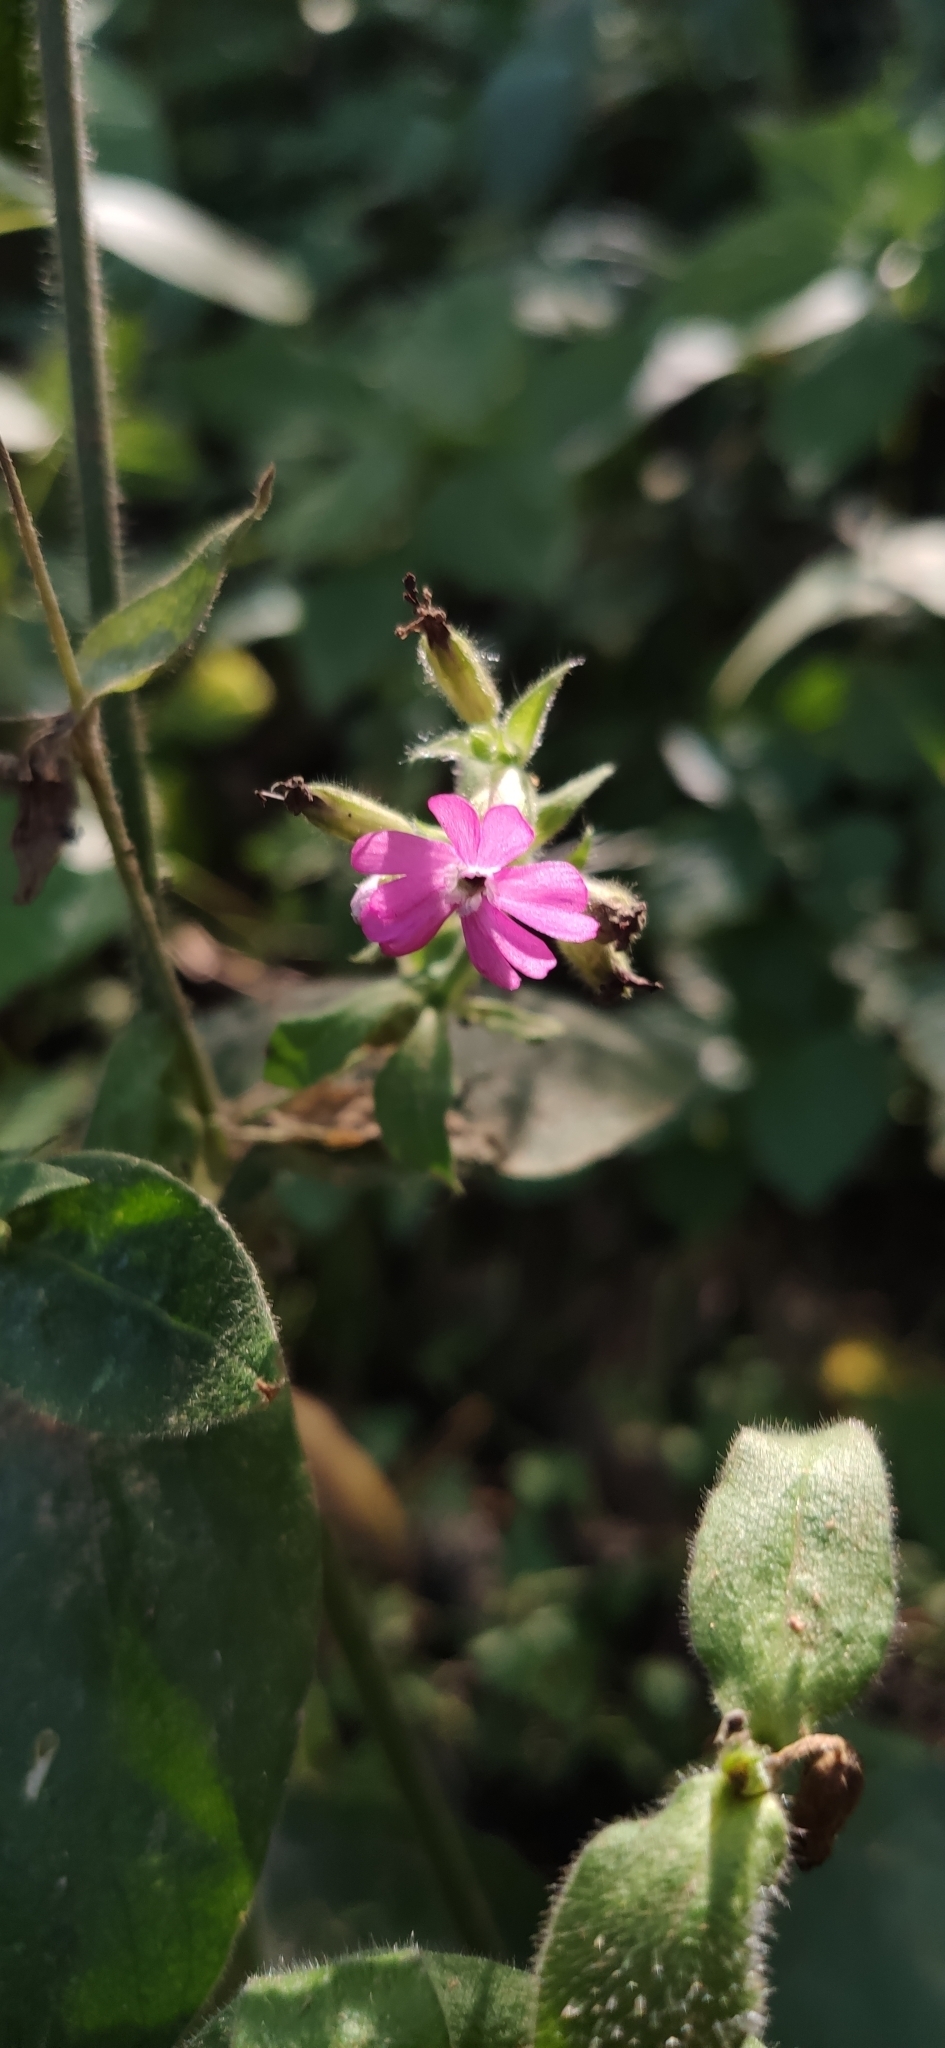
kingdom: Plantae
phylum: Tracheophyta
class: Magnoliopsida
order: Caryophyllales
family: Caryophyllaceae
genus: Silene
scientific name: Silene dioica
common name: Red campion
